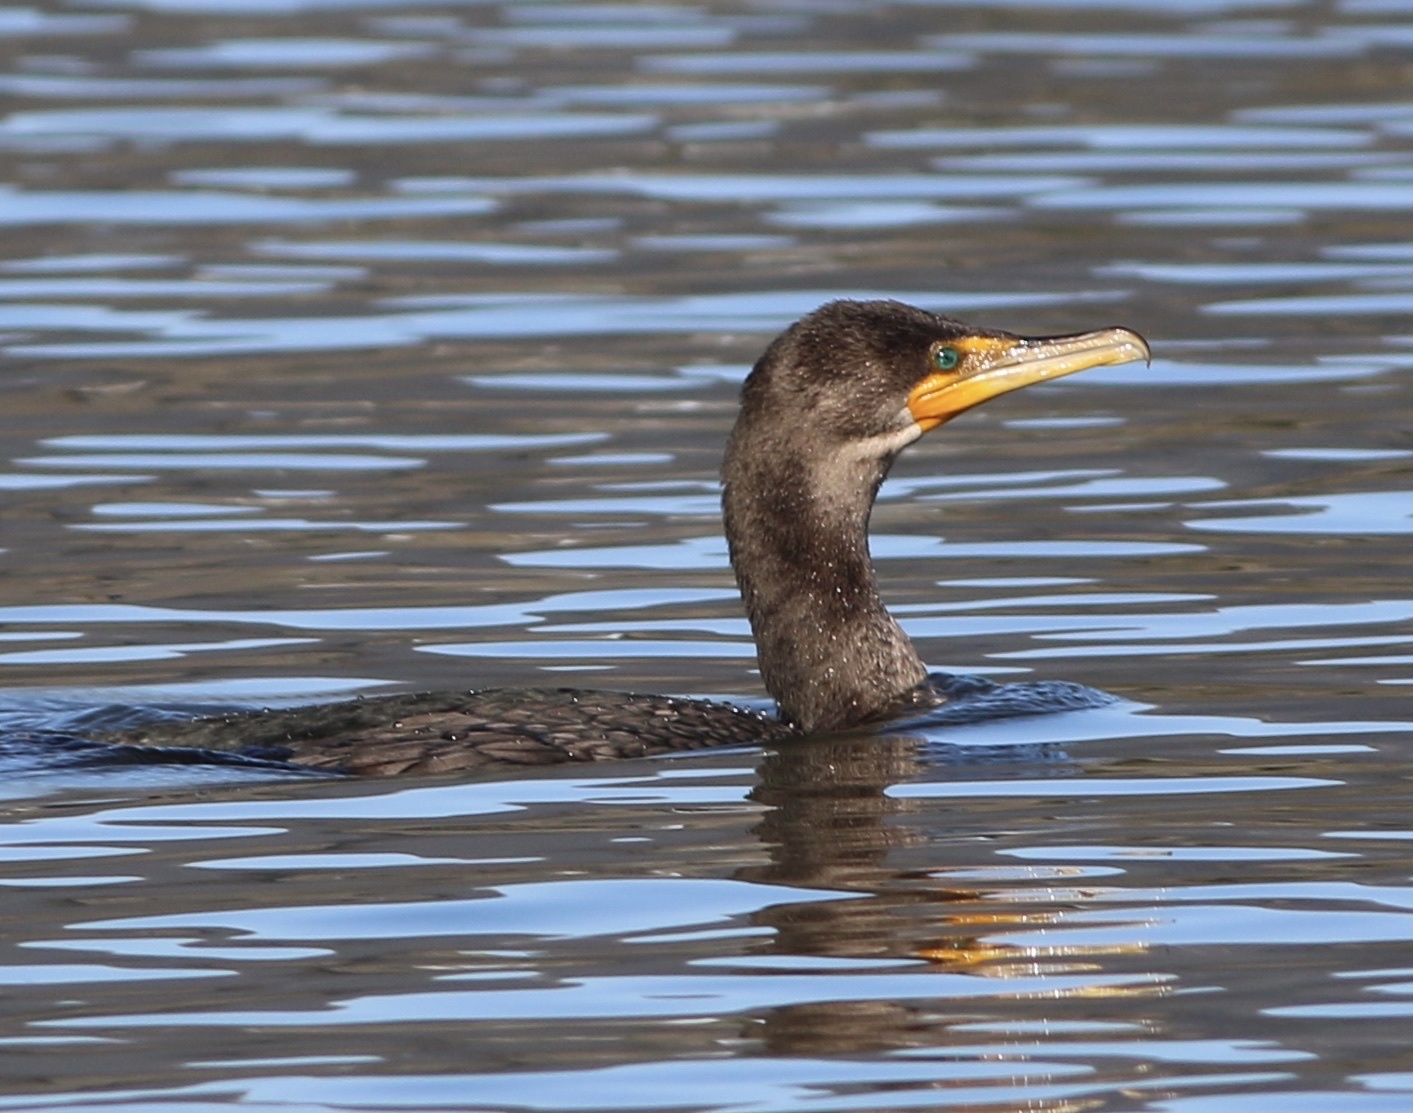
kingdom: Animalia
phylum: Chordata
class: Aves
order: Suliformes
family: Phalacrocoracidae
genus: Phalacrocorax
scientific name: Phalacrocorax auritus
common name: Double-crested cormorant
